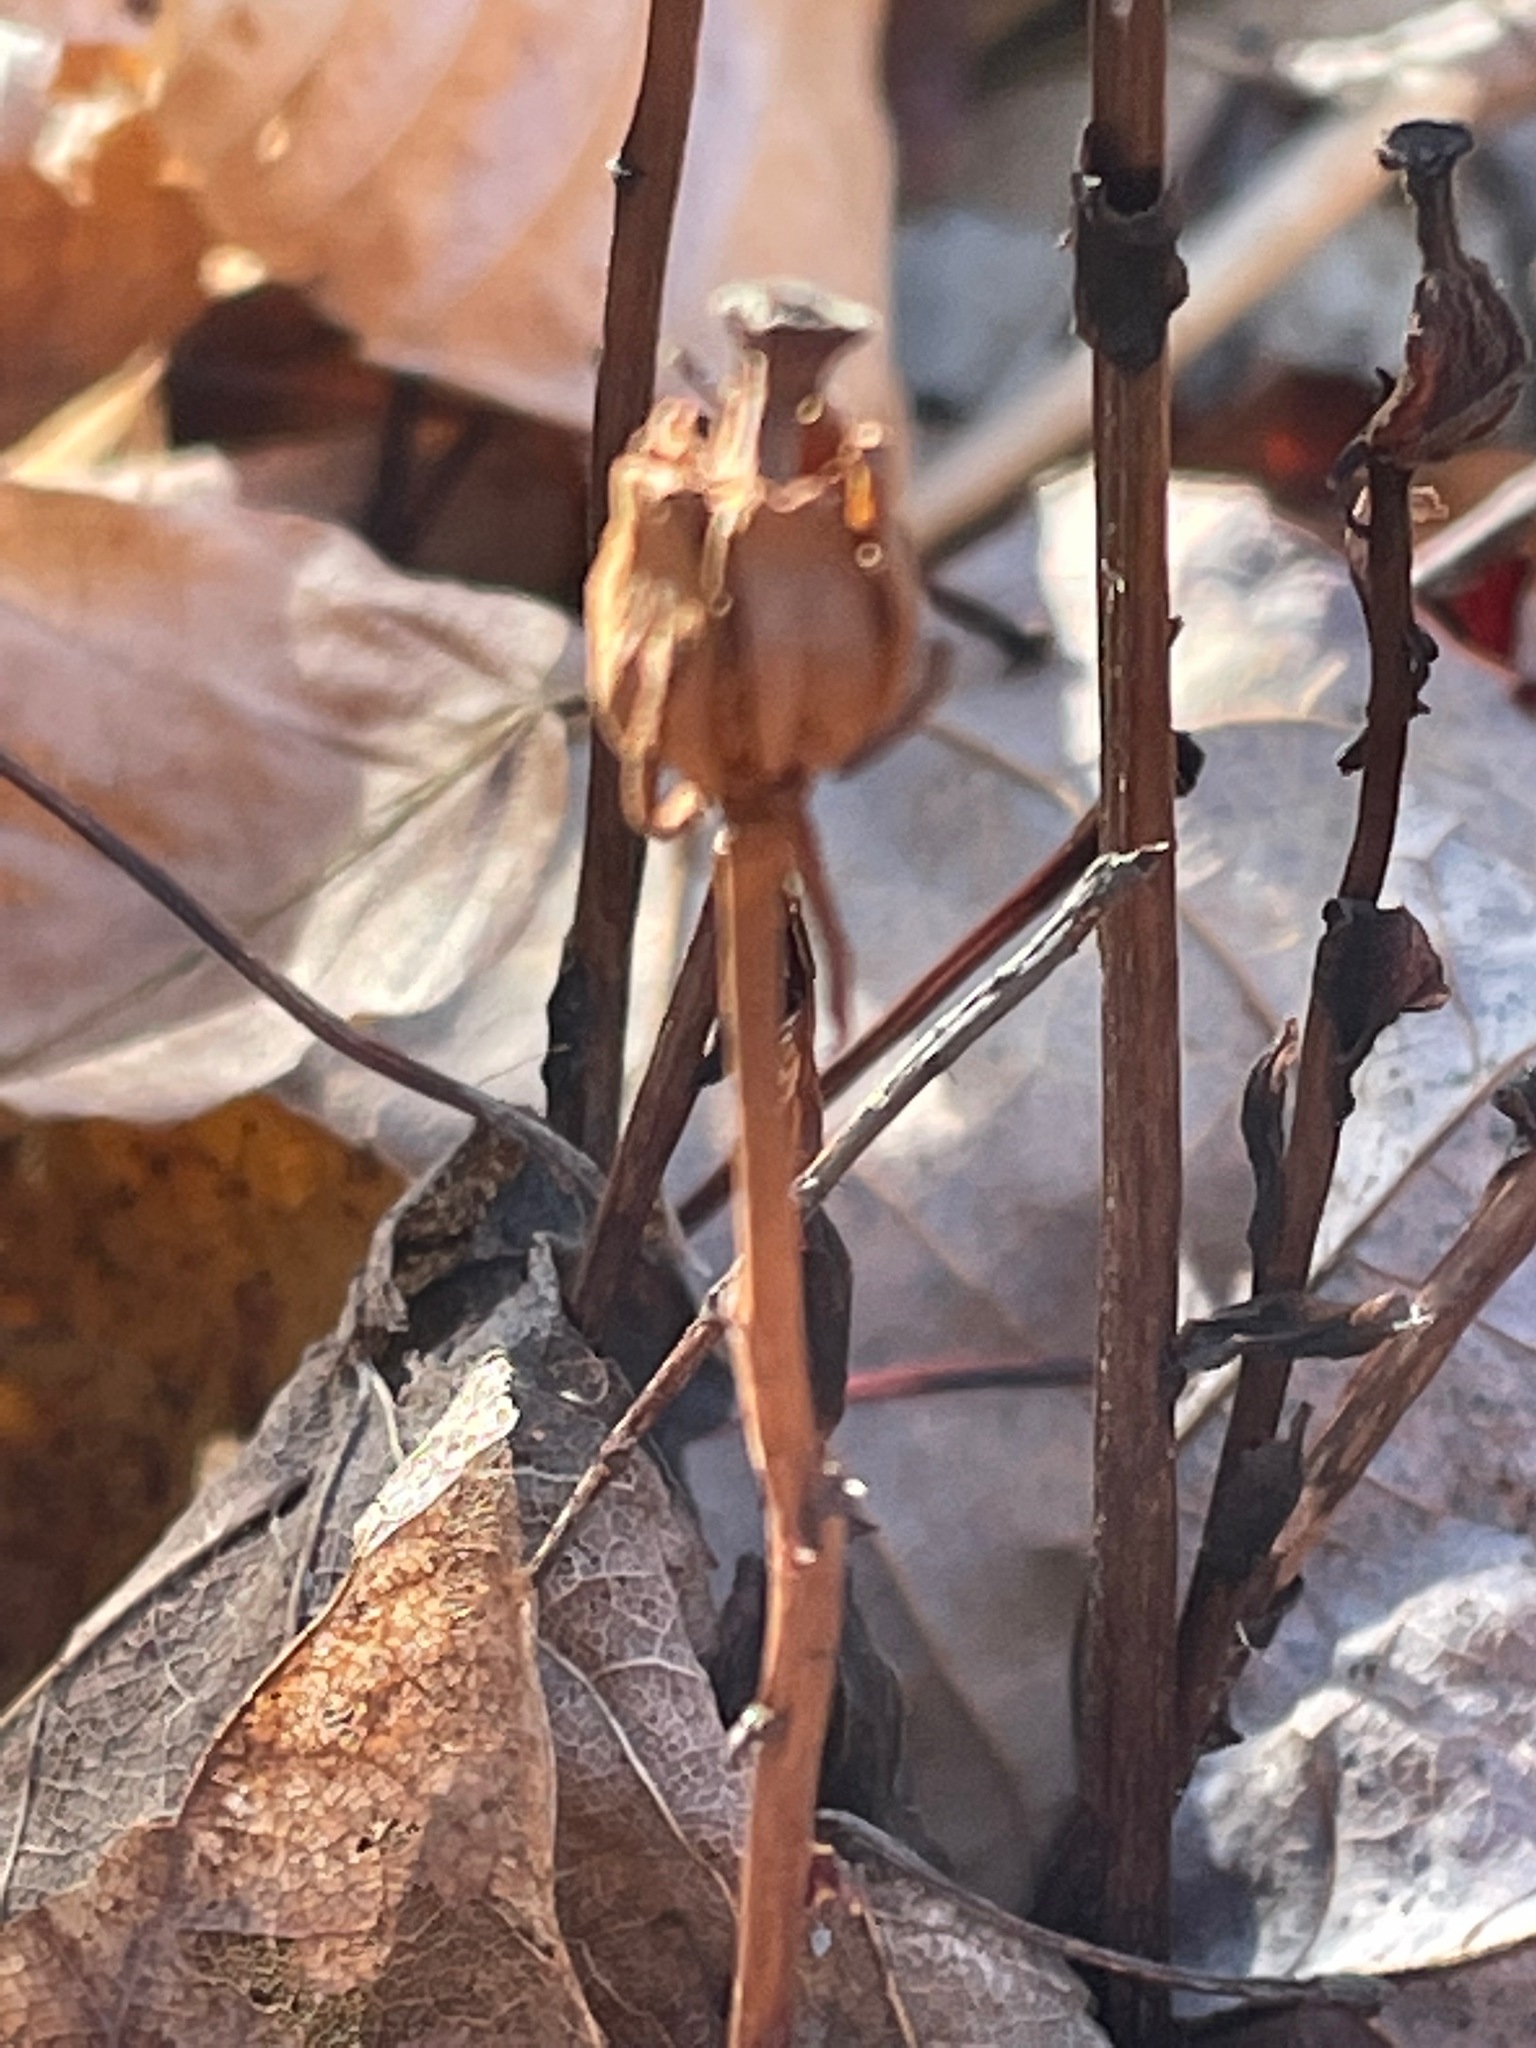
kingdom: Plantae
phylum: Tracheophyta
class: Magnoliopsida
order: Ericales
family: Ericaceae
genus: Monotropa
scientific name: Monotropa uniflora
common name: Convulsion root
